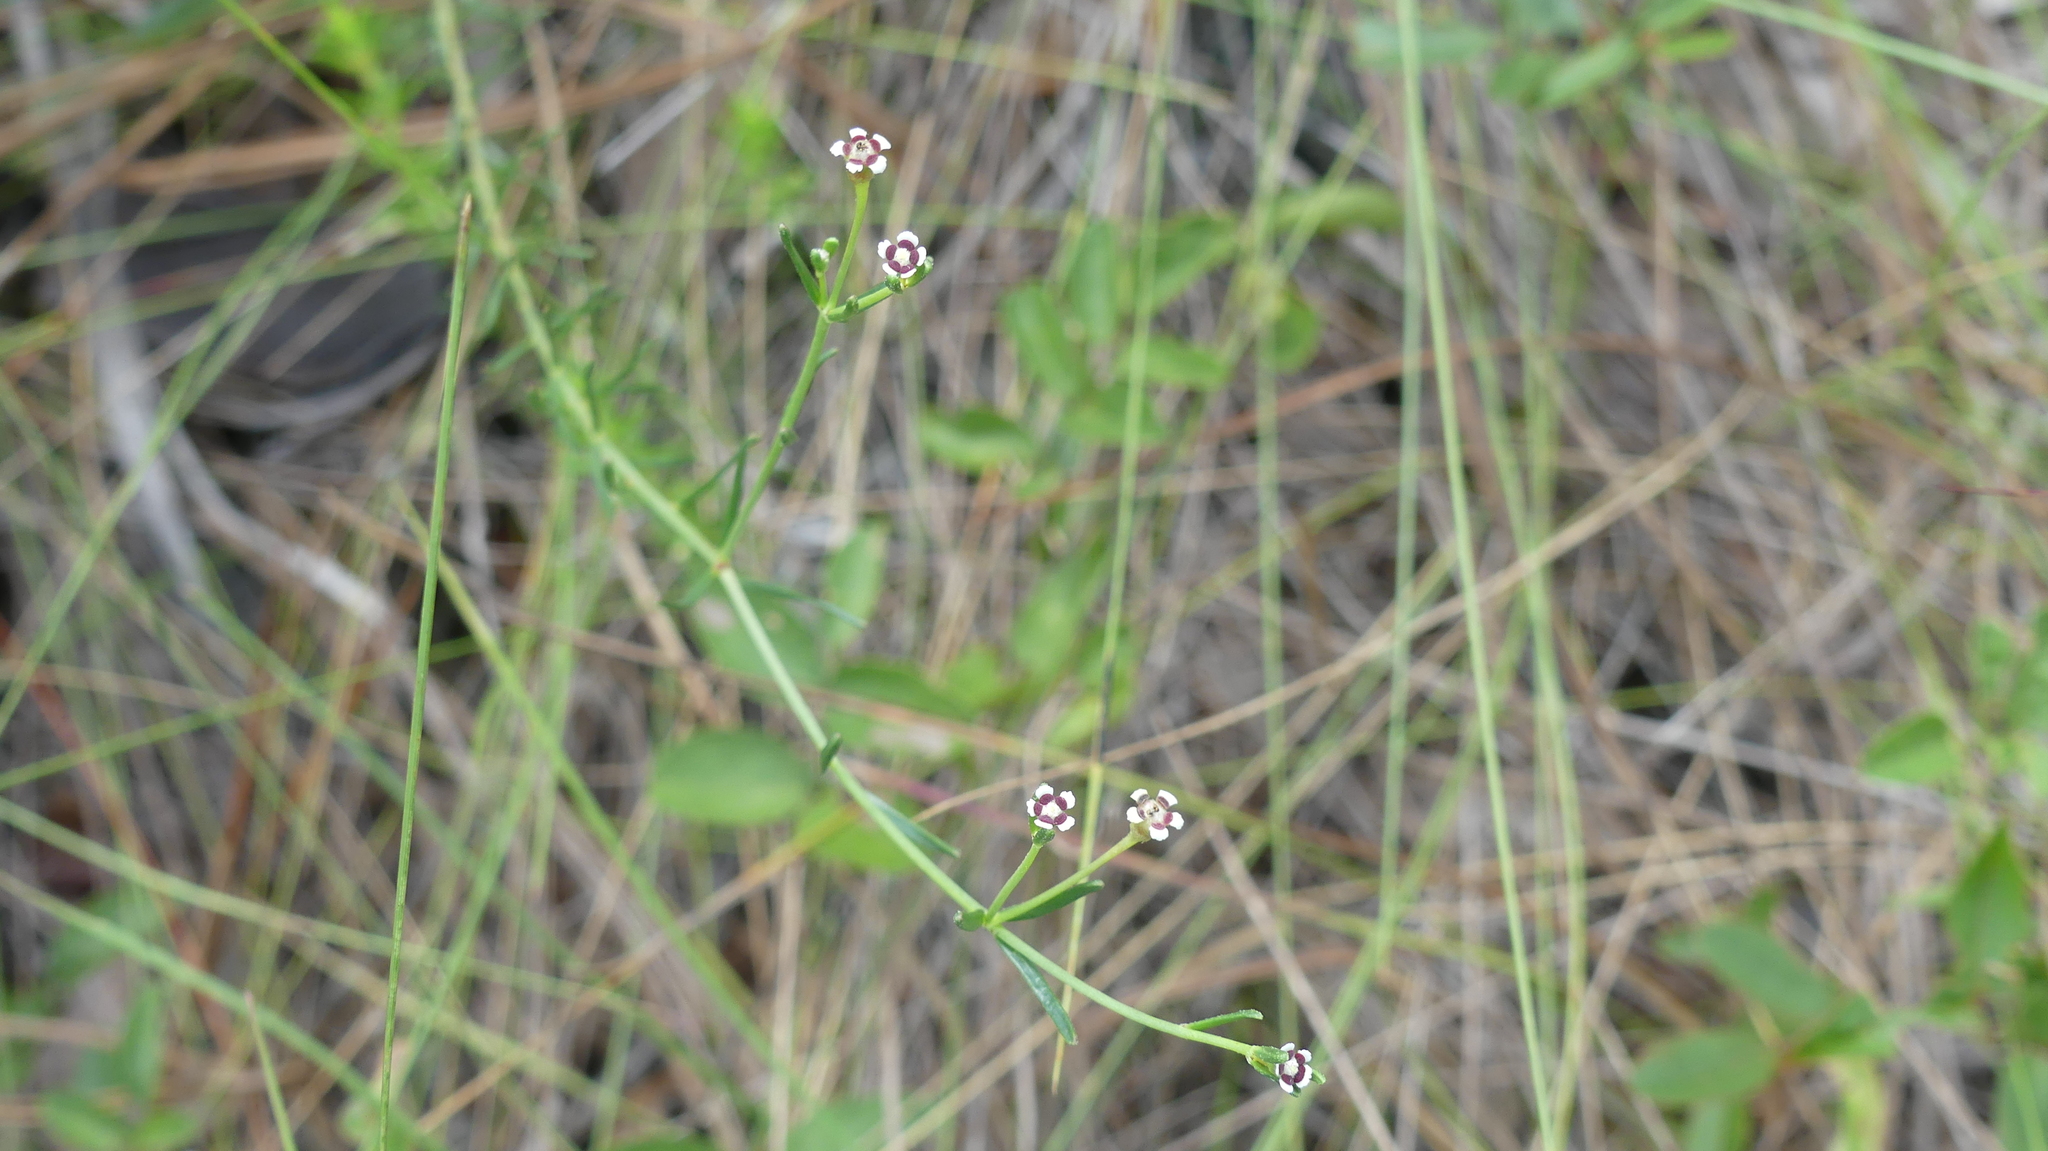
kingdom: Plantae
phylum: Tracheophyta
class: Magnoliopsida
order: Malpighiales
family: Euphorbiaceae
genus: Euphorbia
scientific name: Euphorbia polyphylla
